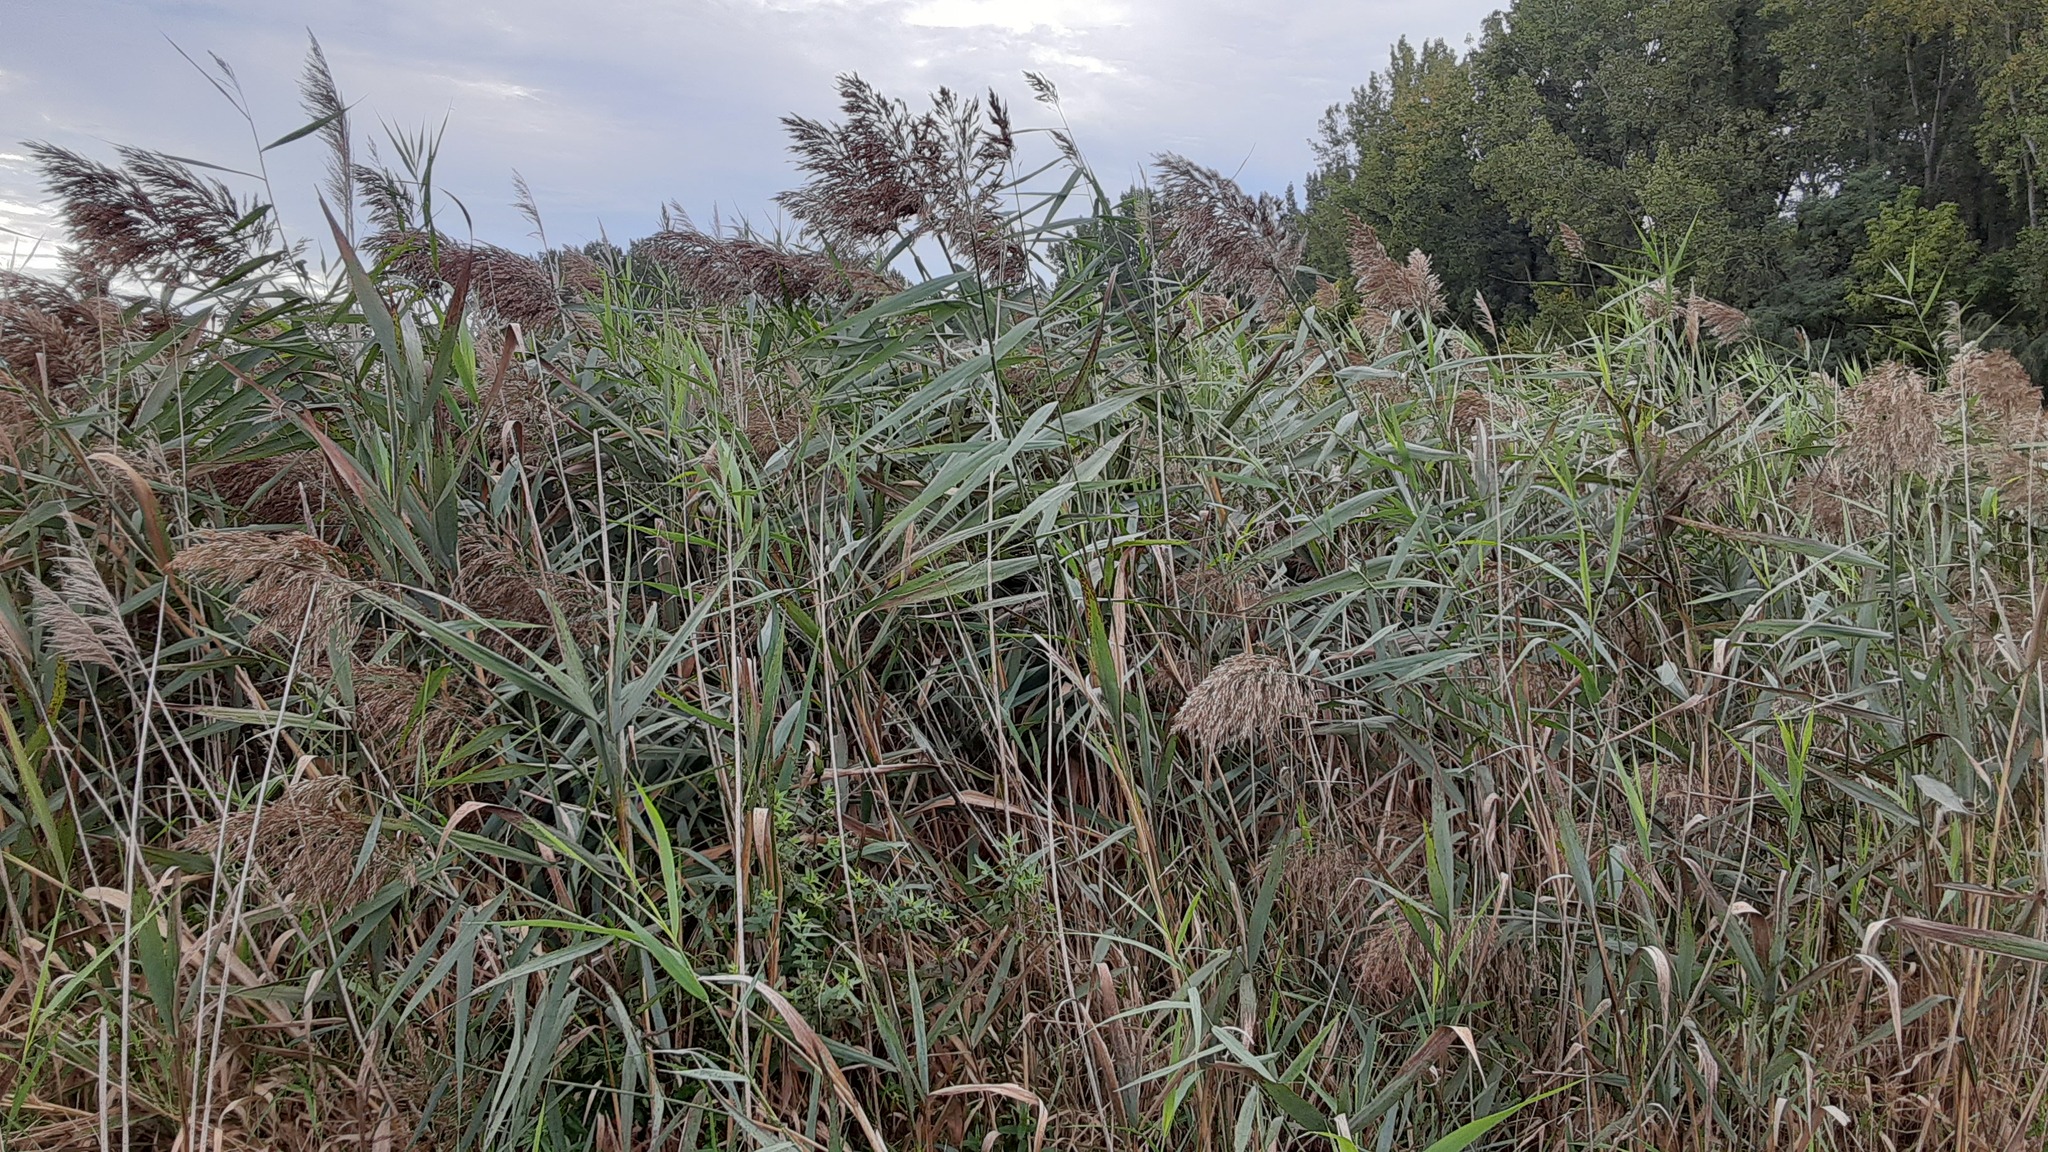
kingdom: Plantae
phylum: Tracheophyta
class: Liliopsida
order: Poales
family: Poaceae
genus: Phragmites
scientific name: Phragmites australis
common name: Common reed
